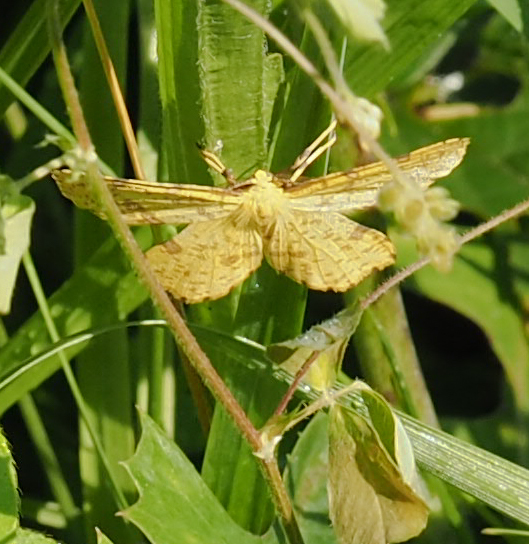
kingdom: Animalia
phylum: Arthropoda
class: Insecta
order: Lepidoptera
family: Geometridae
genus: Xanthotype
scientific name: Xanthotype
